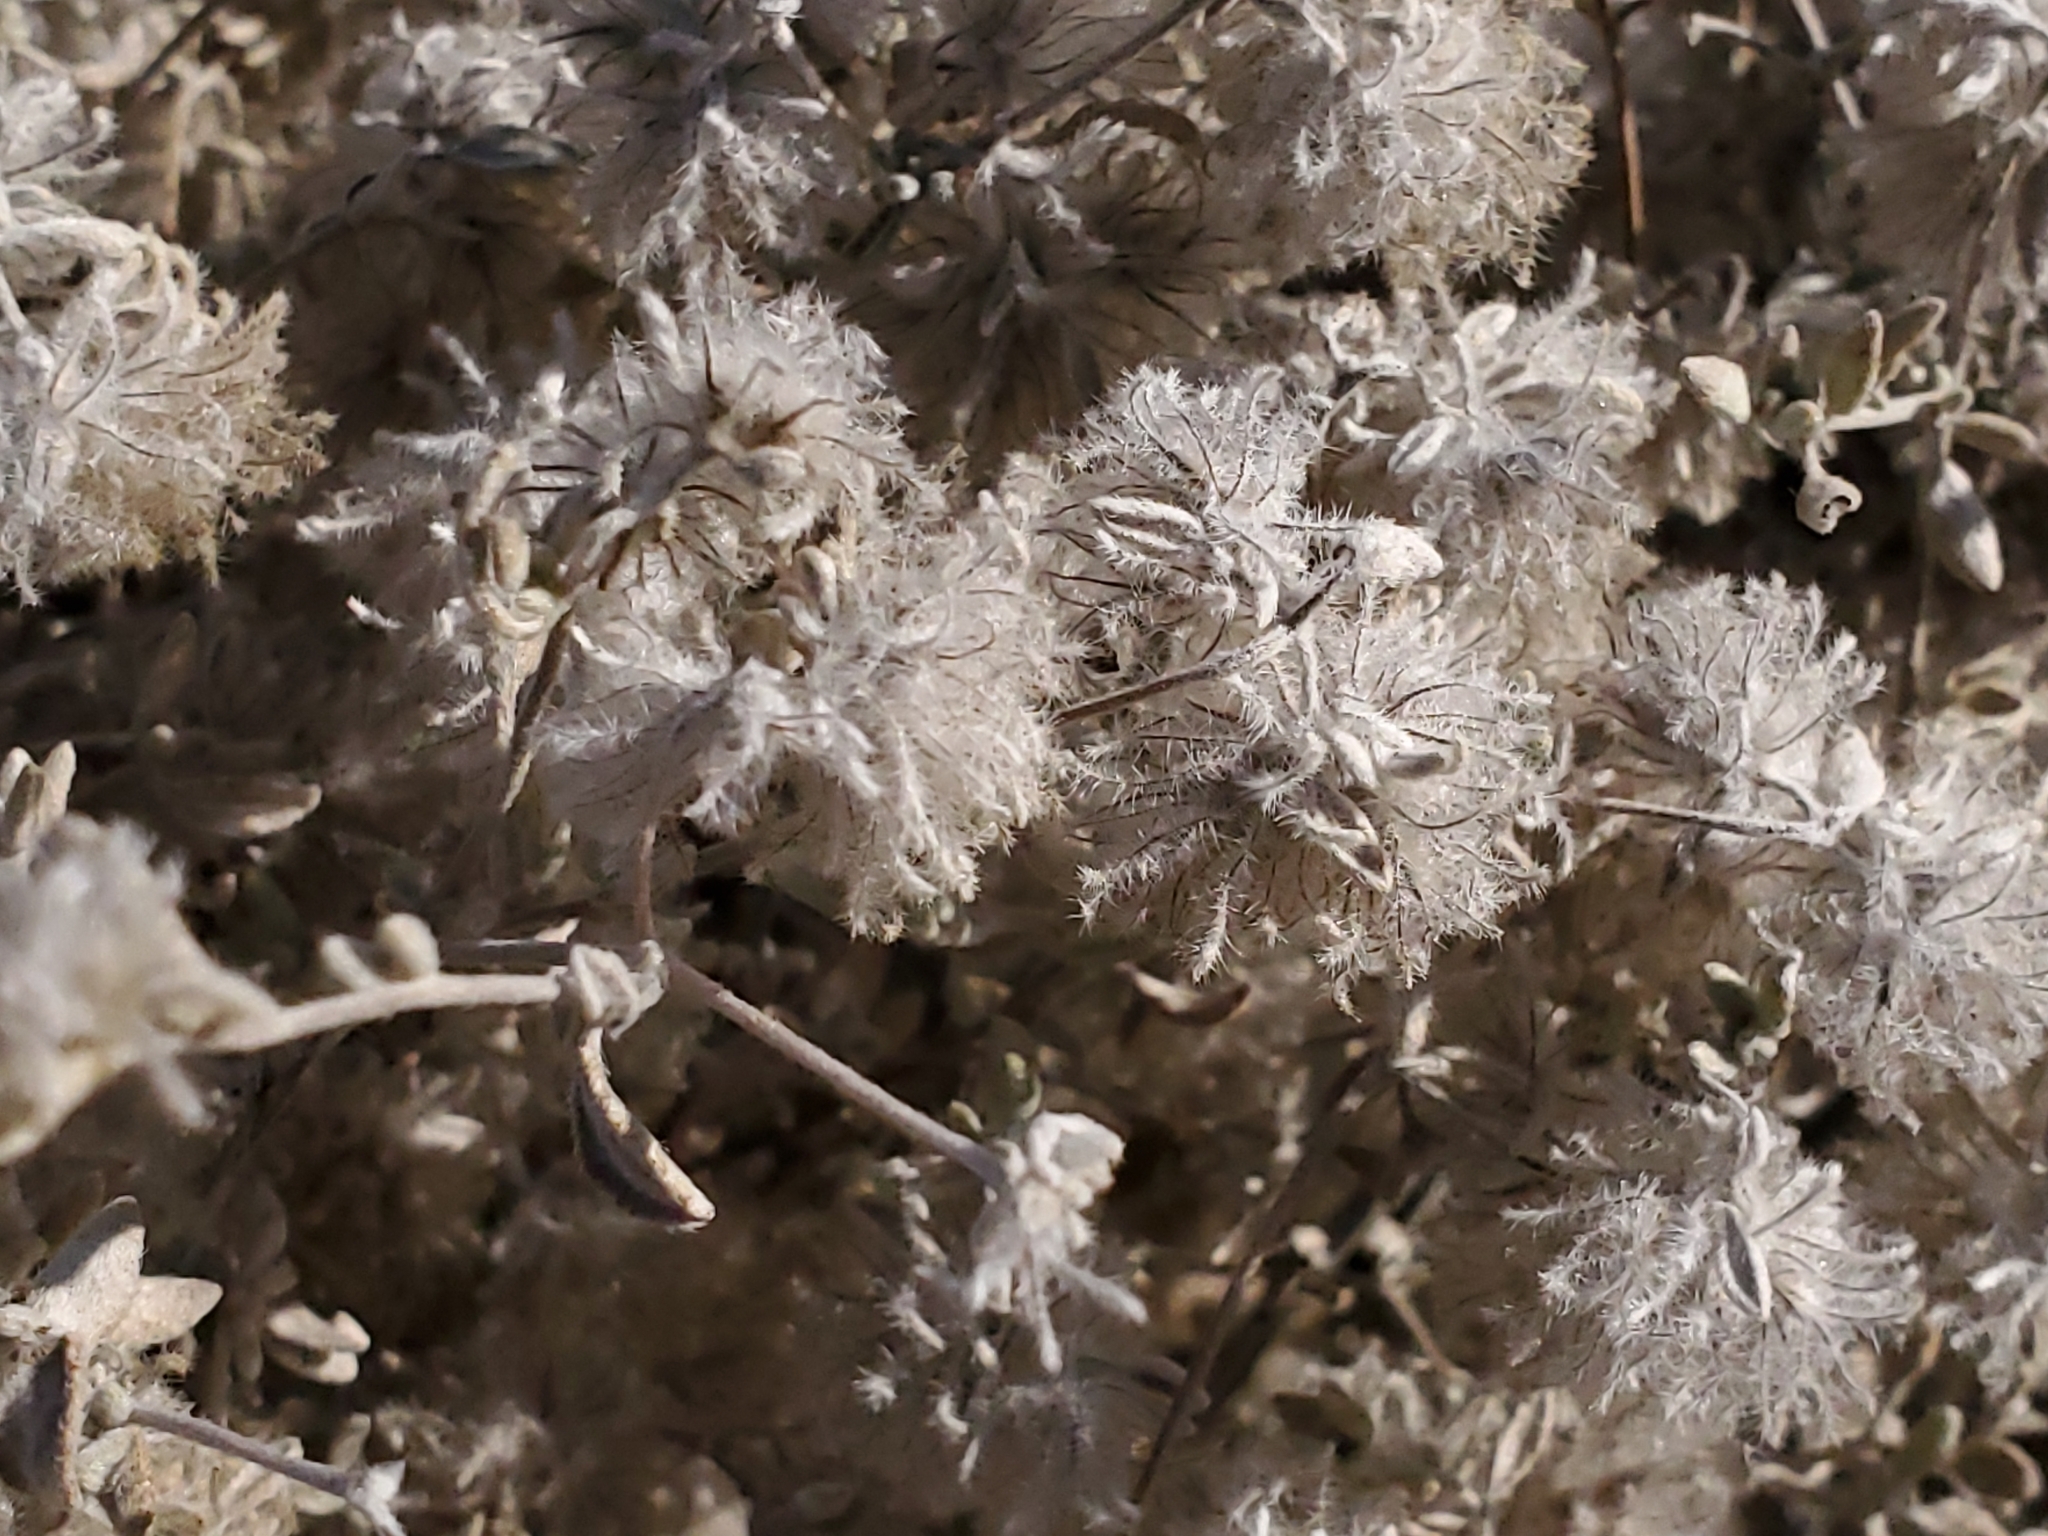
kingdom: Plantae
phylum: Tracheophyta
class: Magnoliopsida
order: Boraginales
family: Ehretiaceae
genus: Tiquilia
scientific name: Tiquilia greggii
